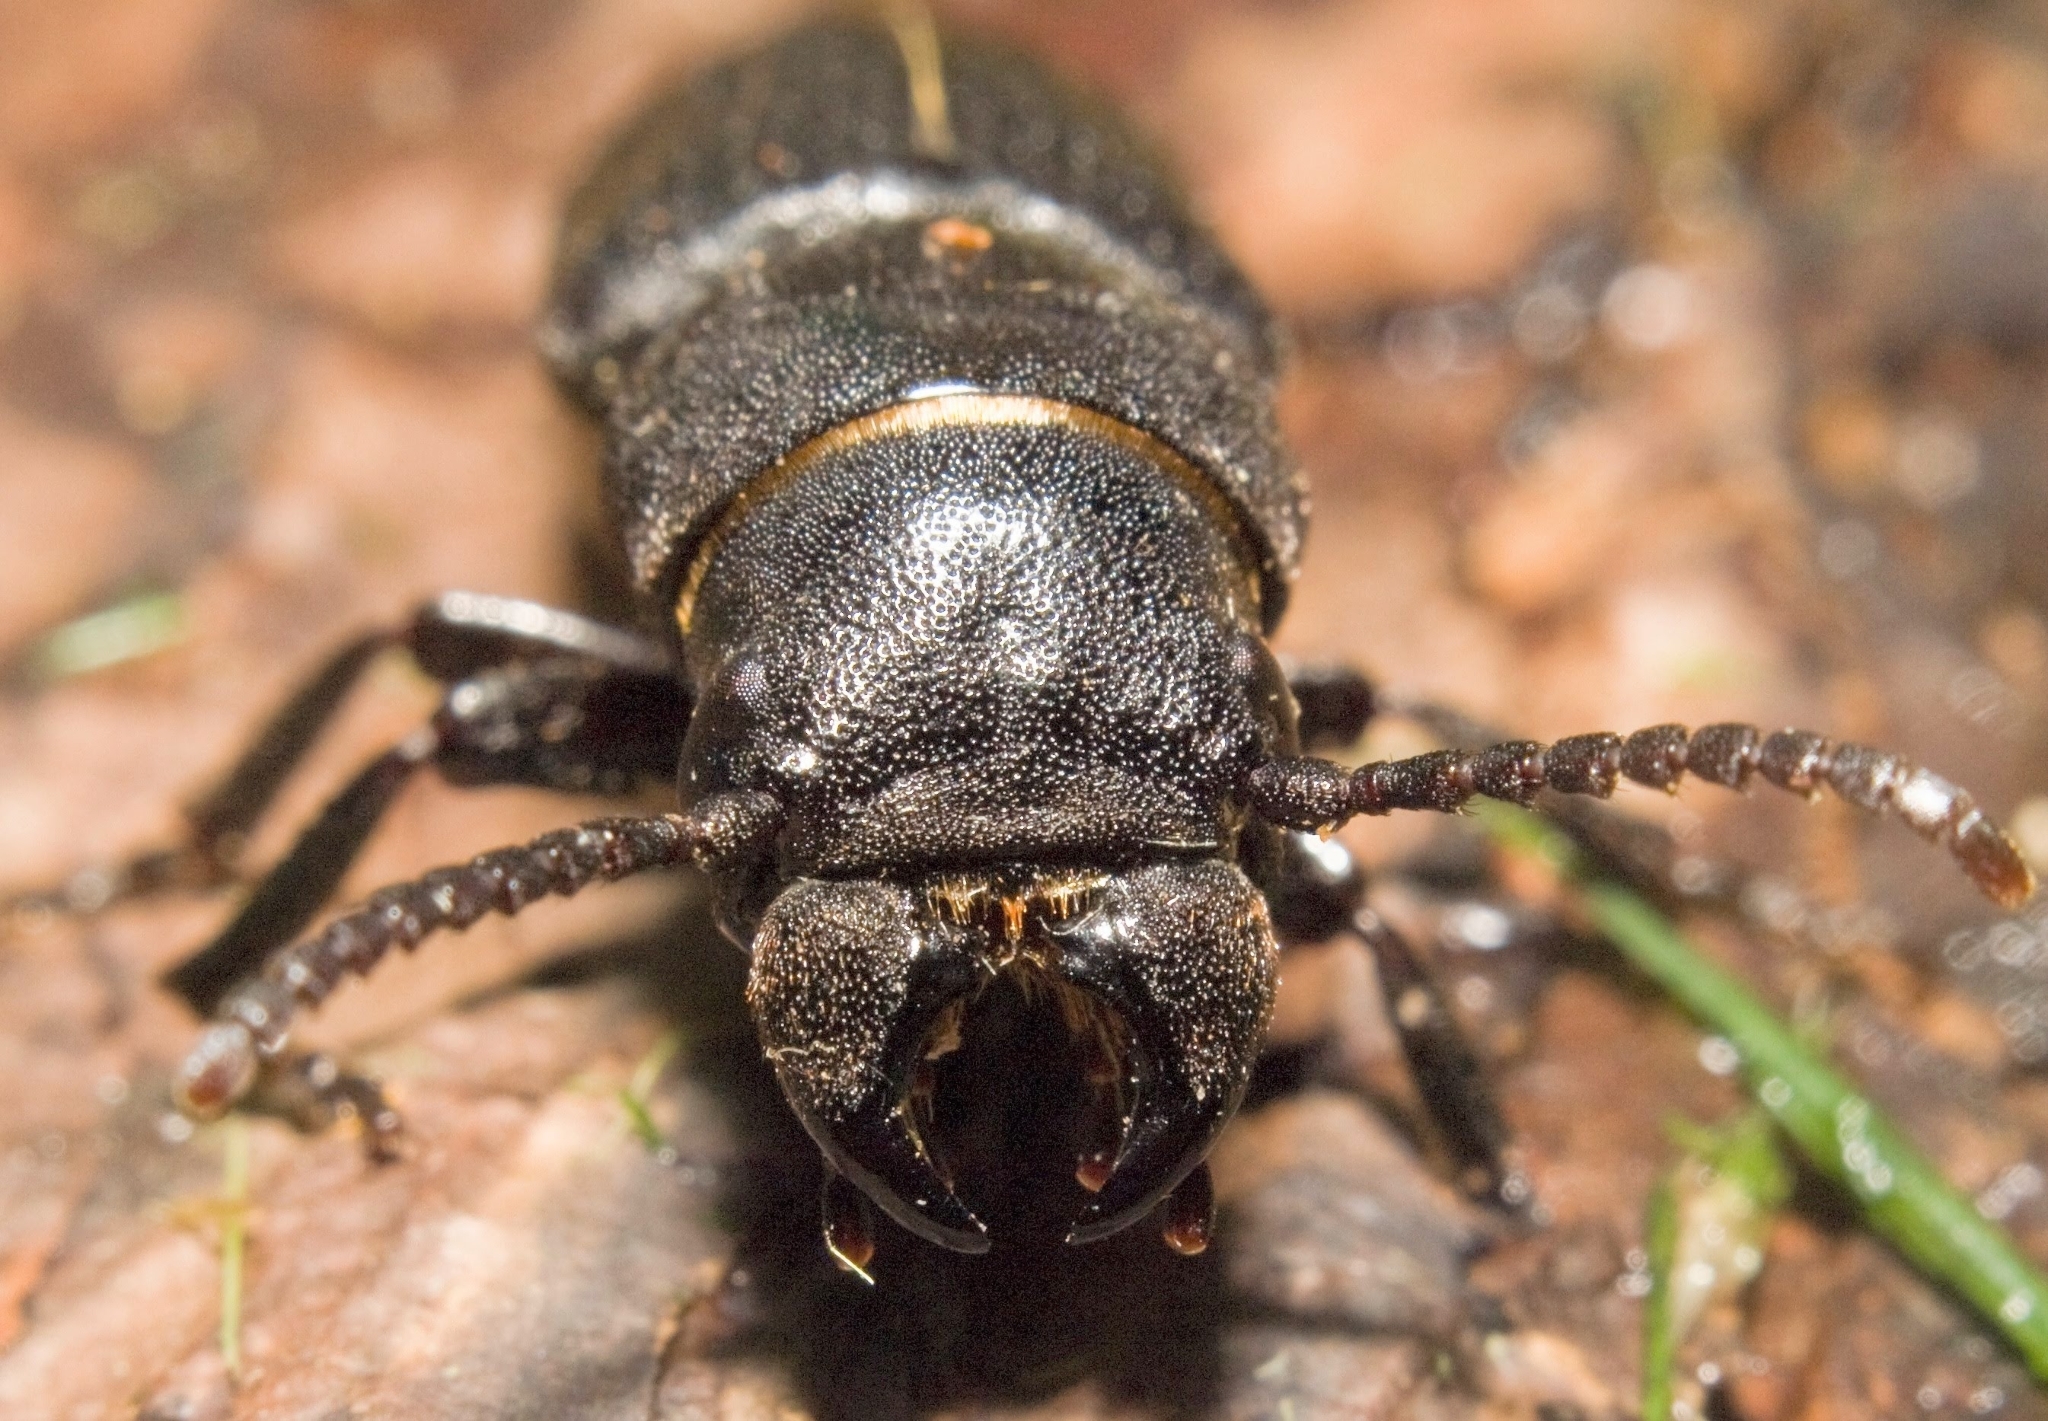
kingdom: Animalia
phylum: Arthropoda
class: Insecta
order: Coleoptera
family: Cerambycidae
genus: Spondylis
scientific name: Spondylis buprestoides
